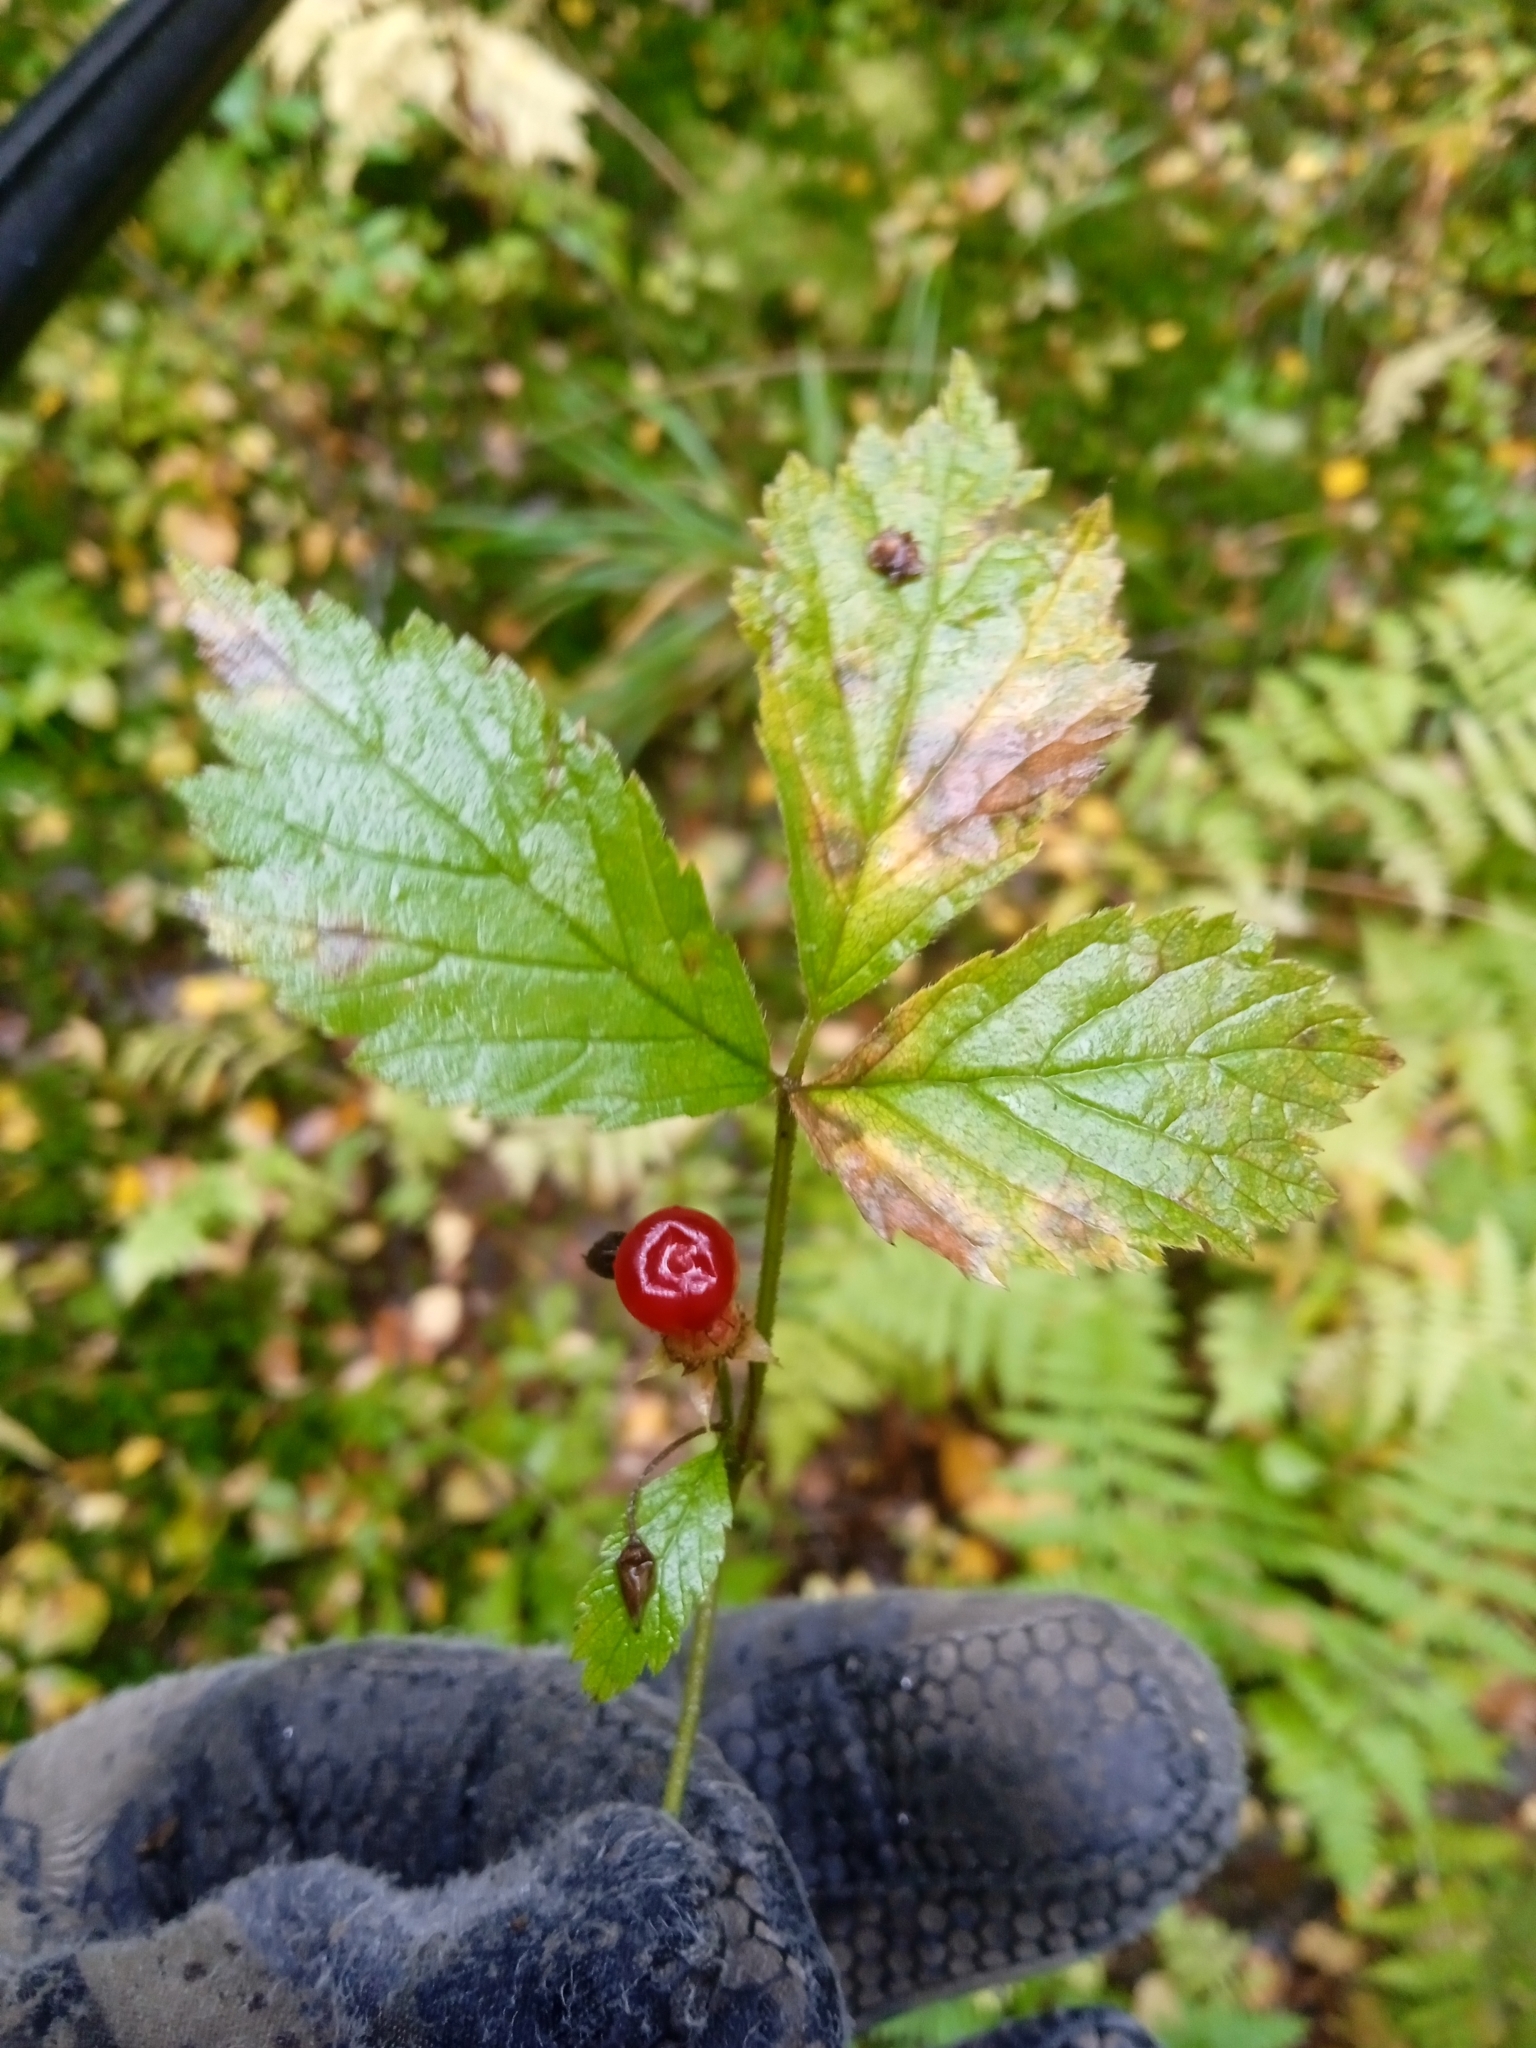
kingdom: Plantae
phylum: Tracheophyta
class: Magnoliopsida
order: Rosales
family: Rosaceae
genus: Rubus
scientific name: Rubus saxatilis
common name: Stone bramble
